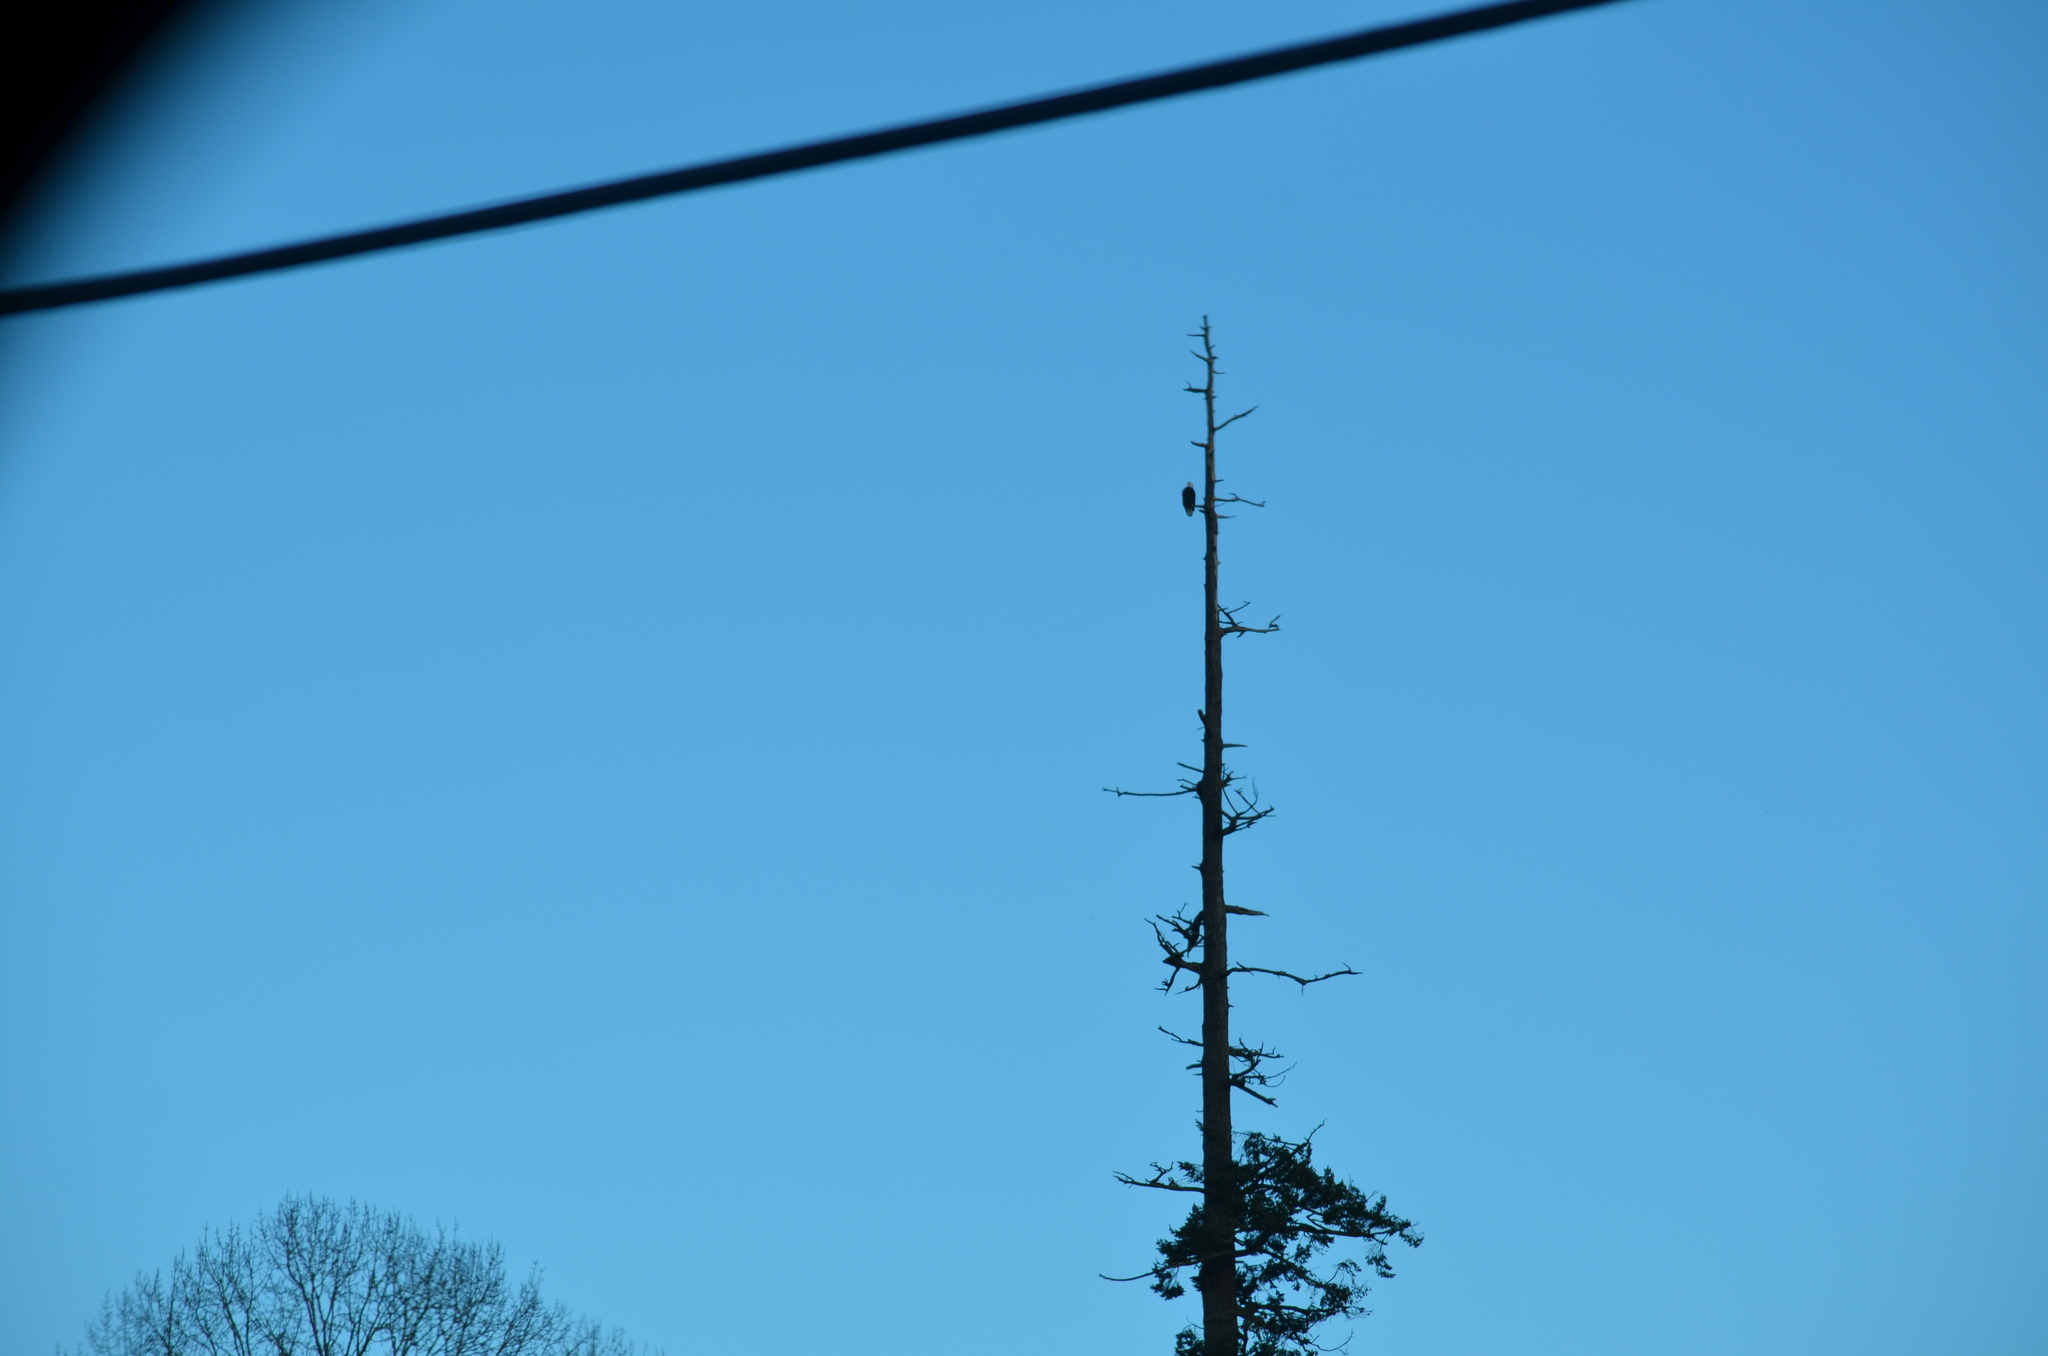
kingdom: Animalia
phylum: Chordata
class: Aves
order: Accipitriformes
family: Accipitridae
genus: Haliaeetus
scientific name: Haliaeetus leucocephalus
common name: Bald eagle
